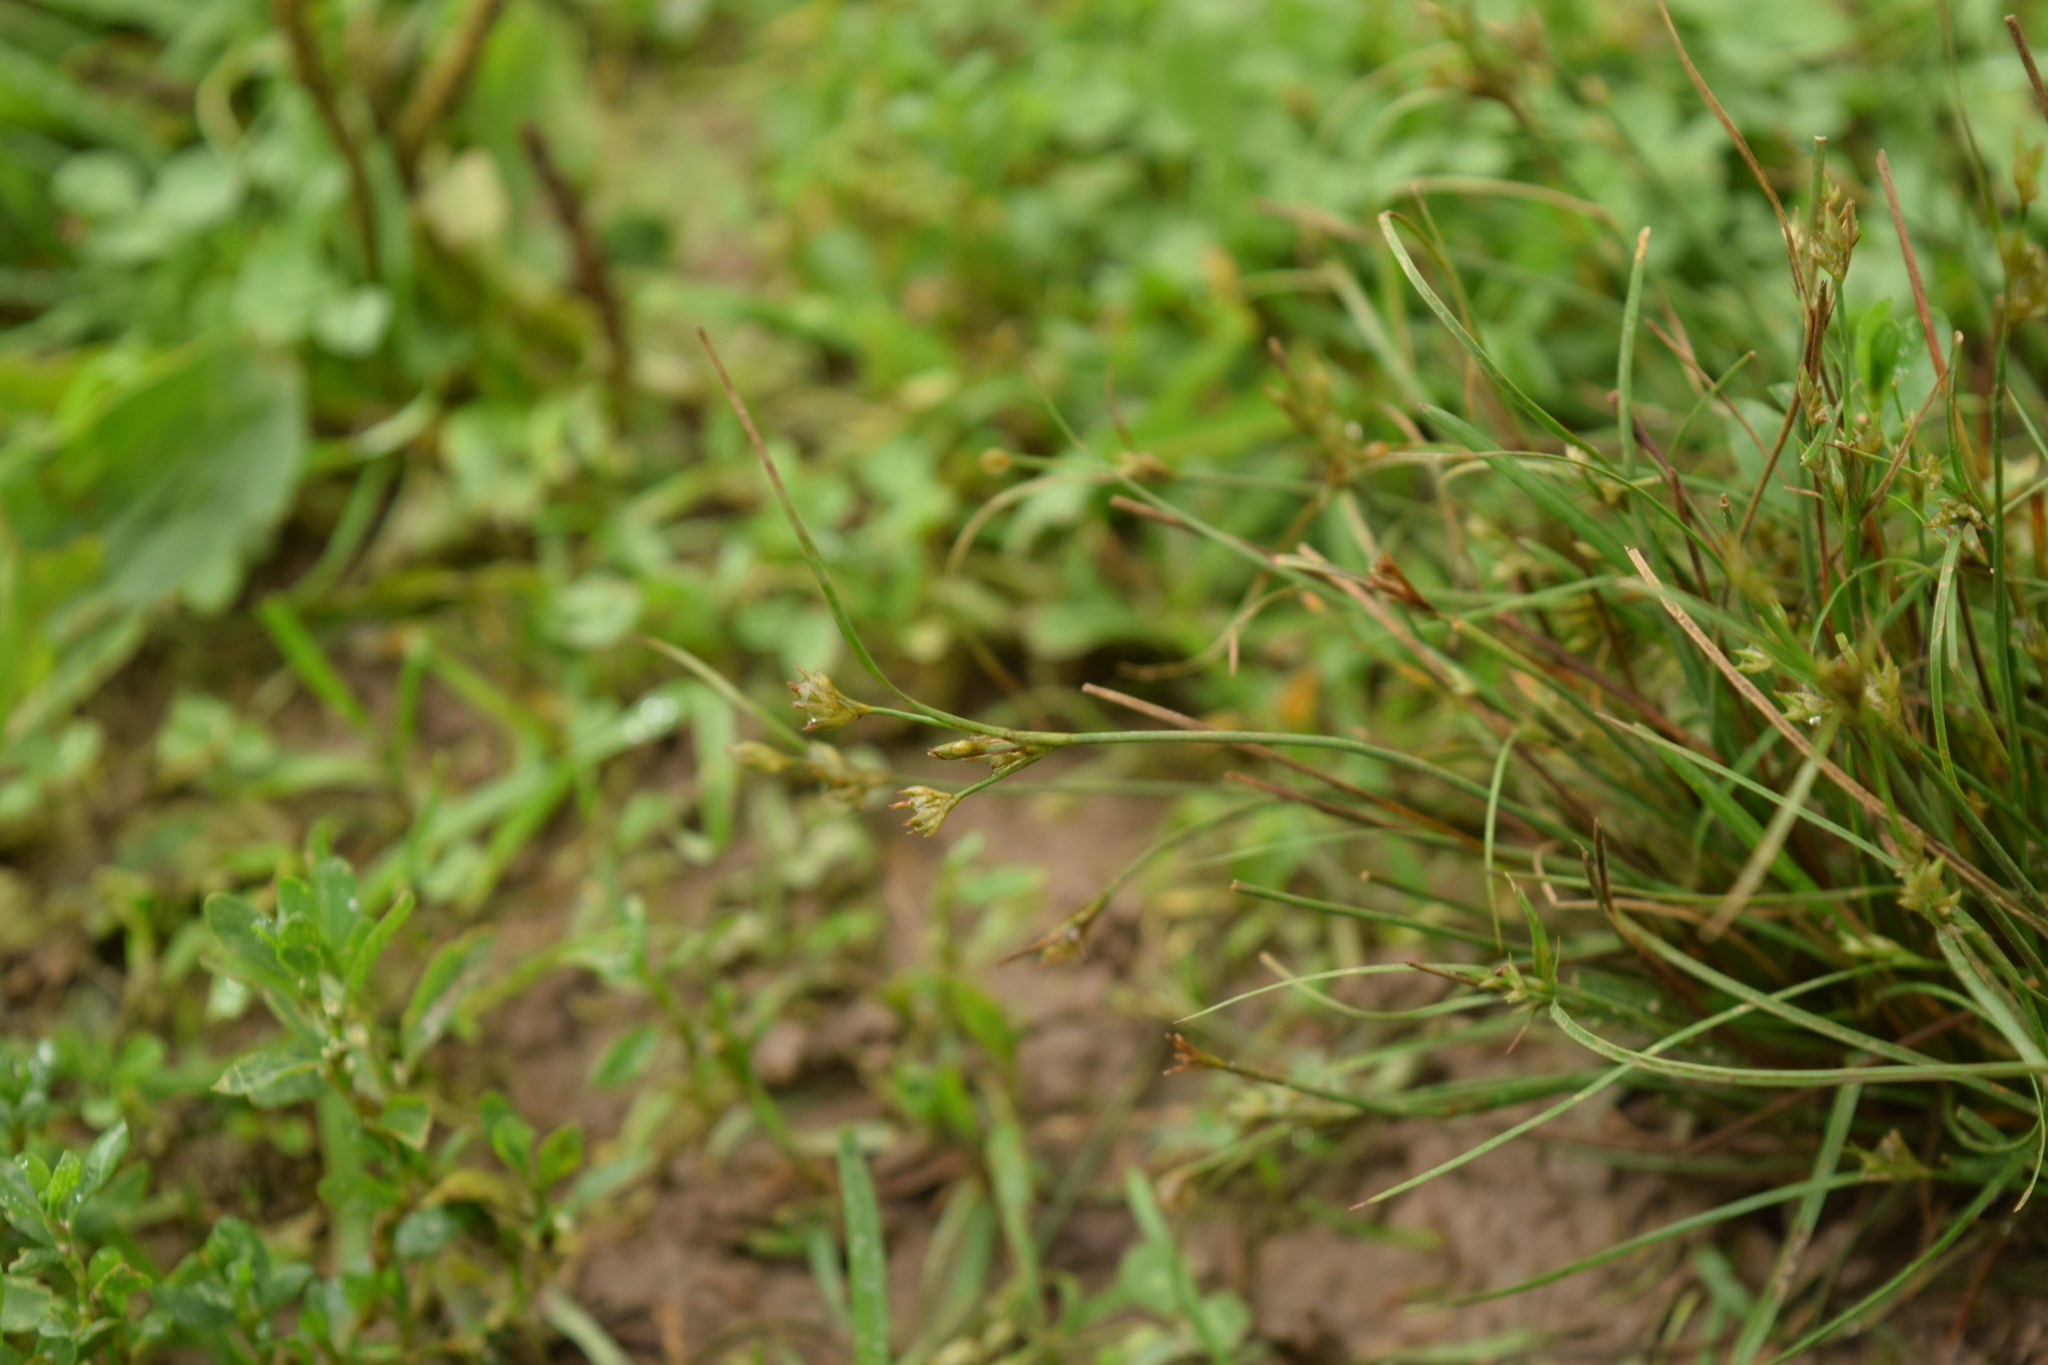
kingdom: Plantae
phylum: Tracheophyta
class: Liliopsida
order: Poales
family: Juncaceae
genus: Juncus
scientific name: Juncus bufonius
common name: Toad rush
